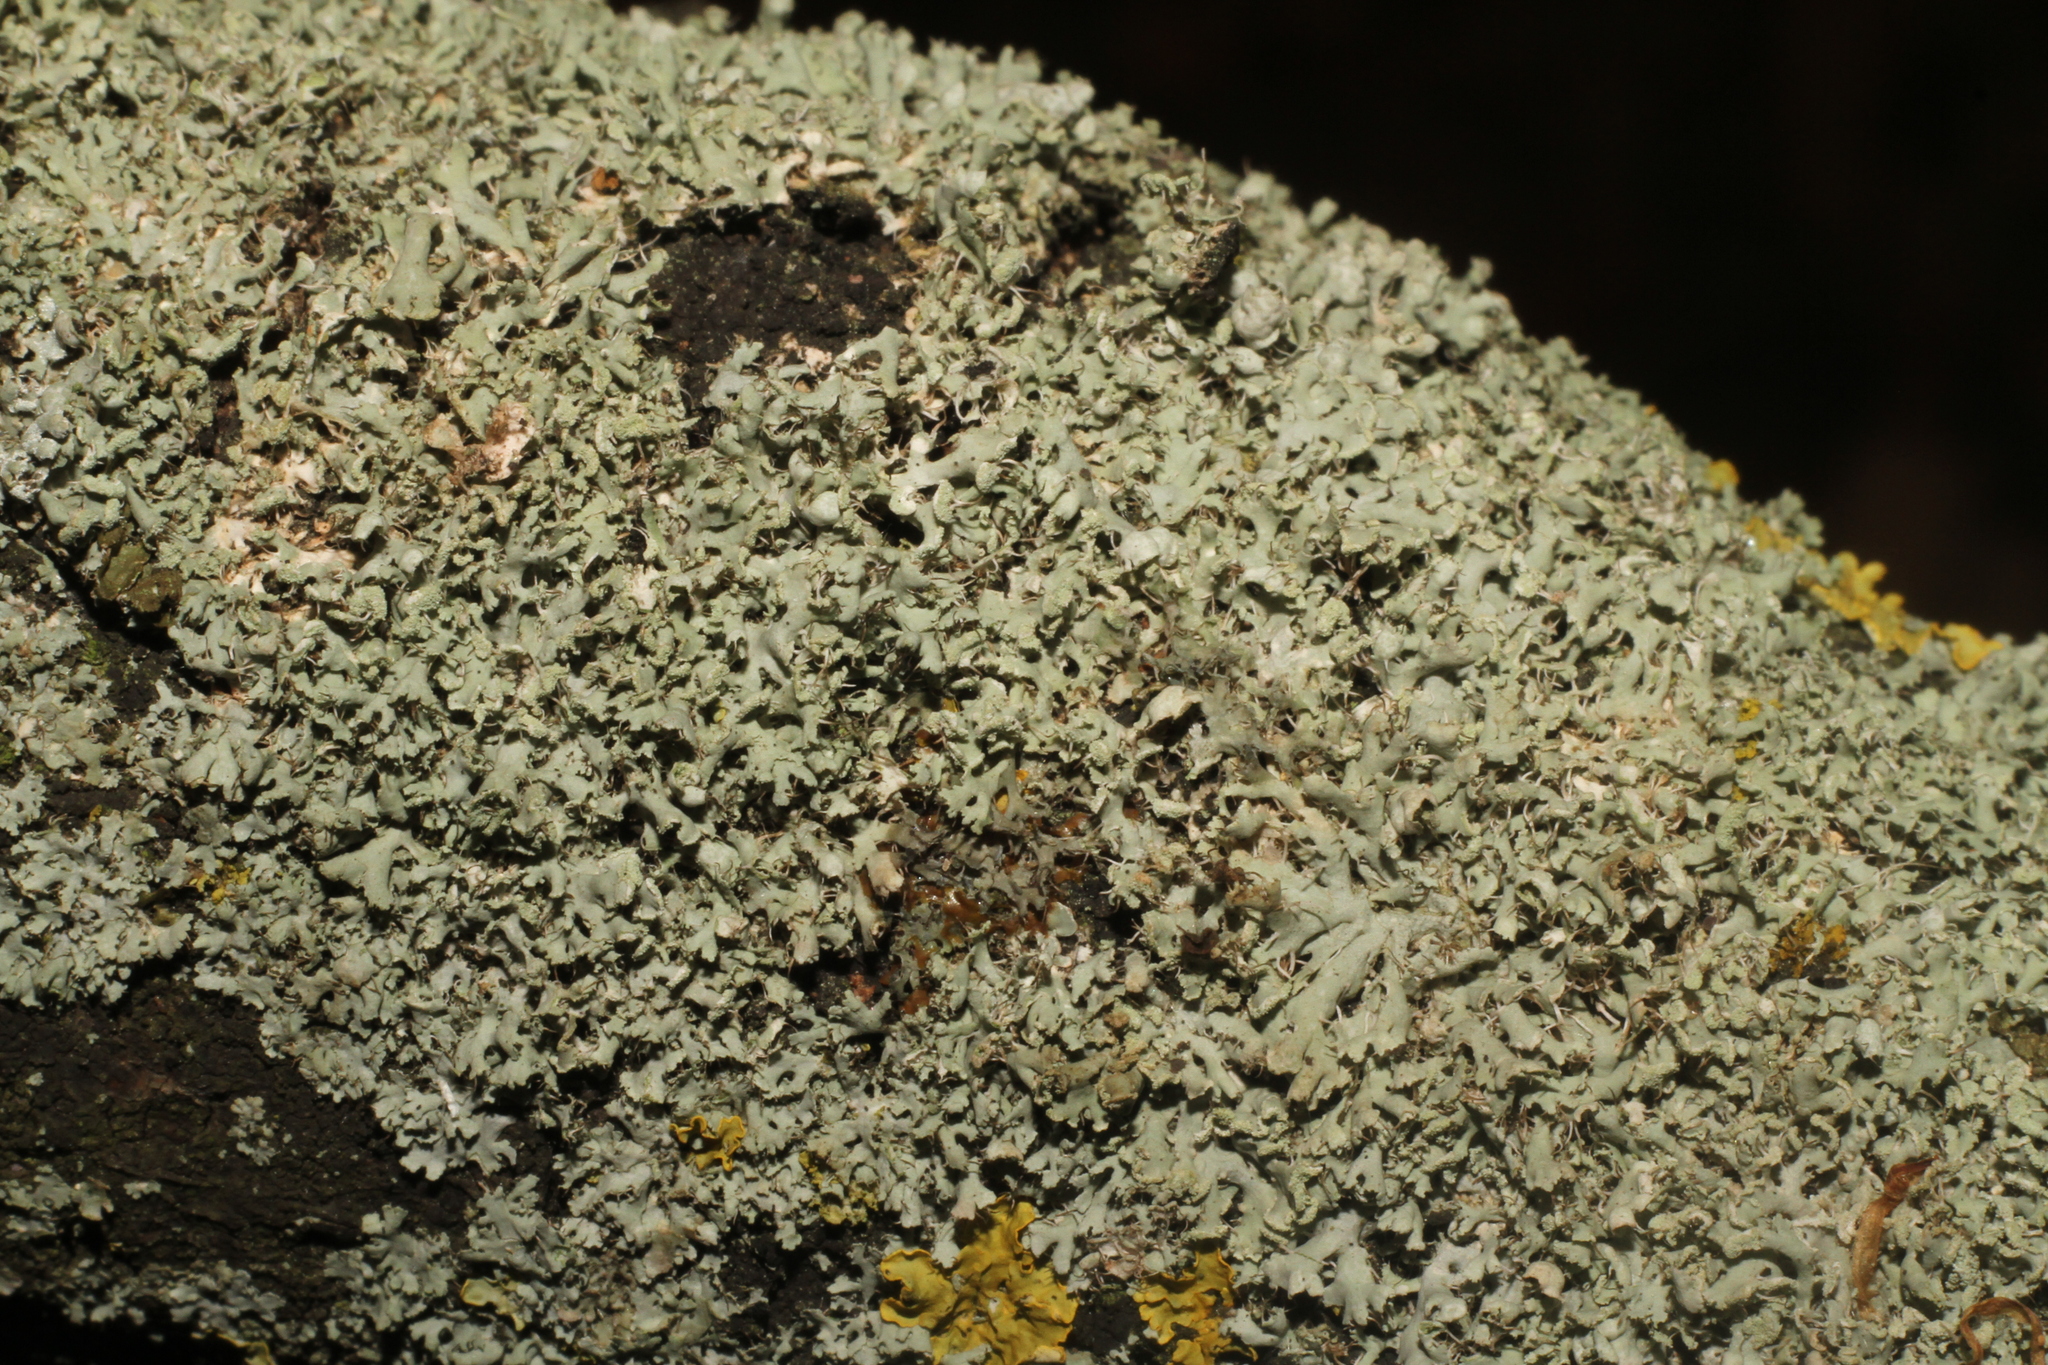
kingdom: Fungi
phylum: Ascomycota
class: Lecanoromycetes
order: Caliciales
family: Physciaceae
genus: Physcia
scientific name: Physcia tenella
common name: Fringed rosette lichen
